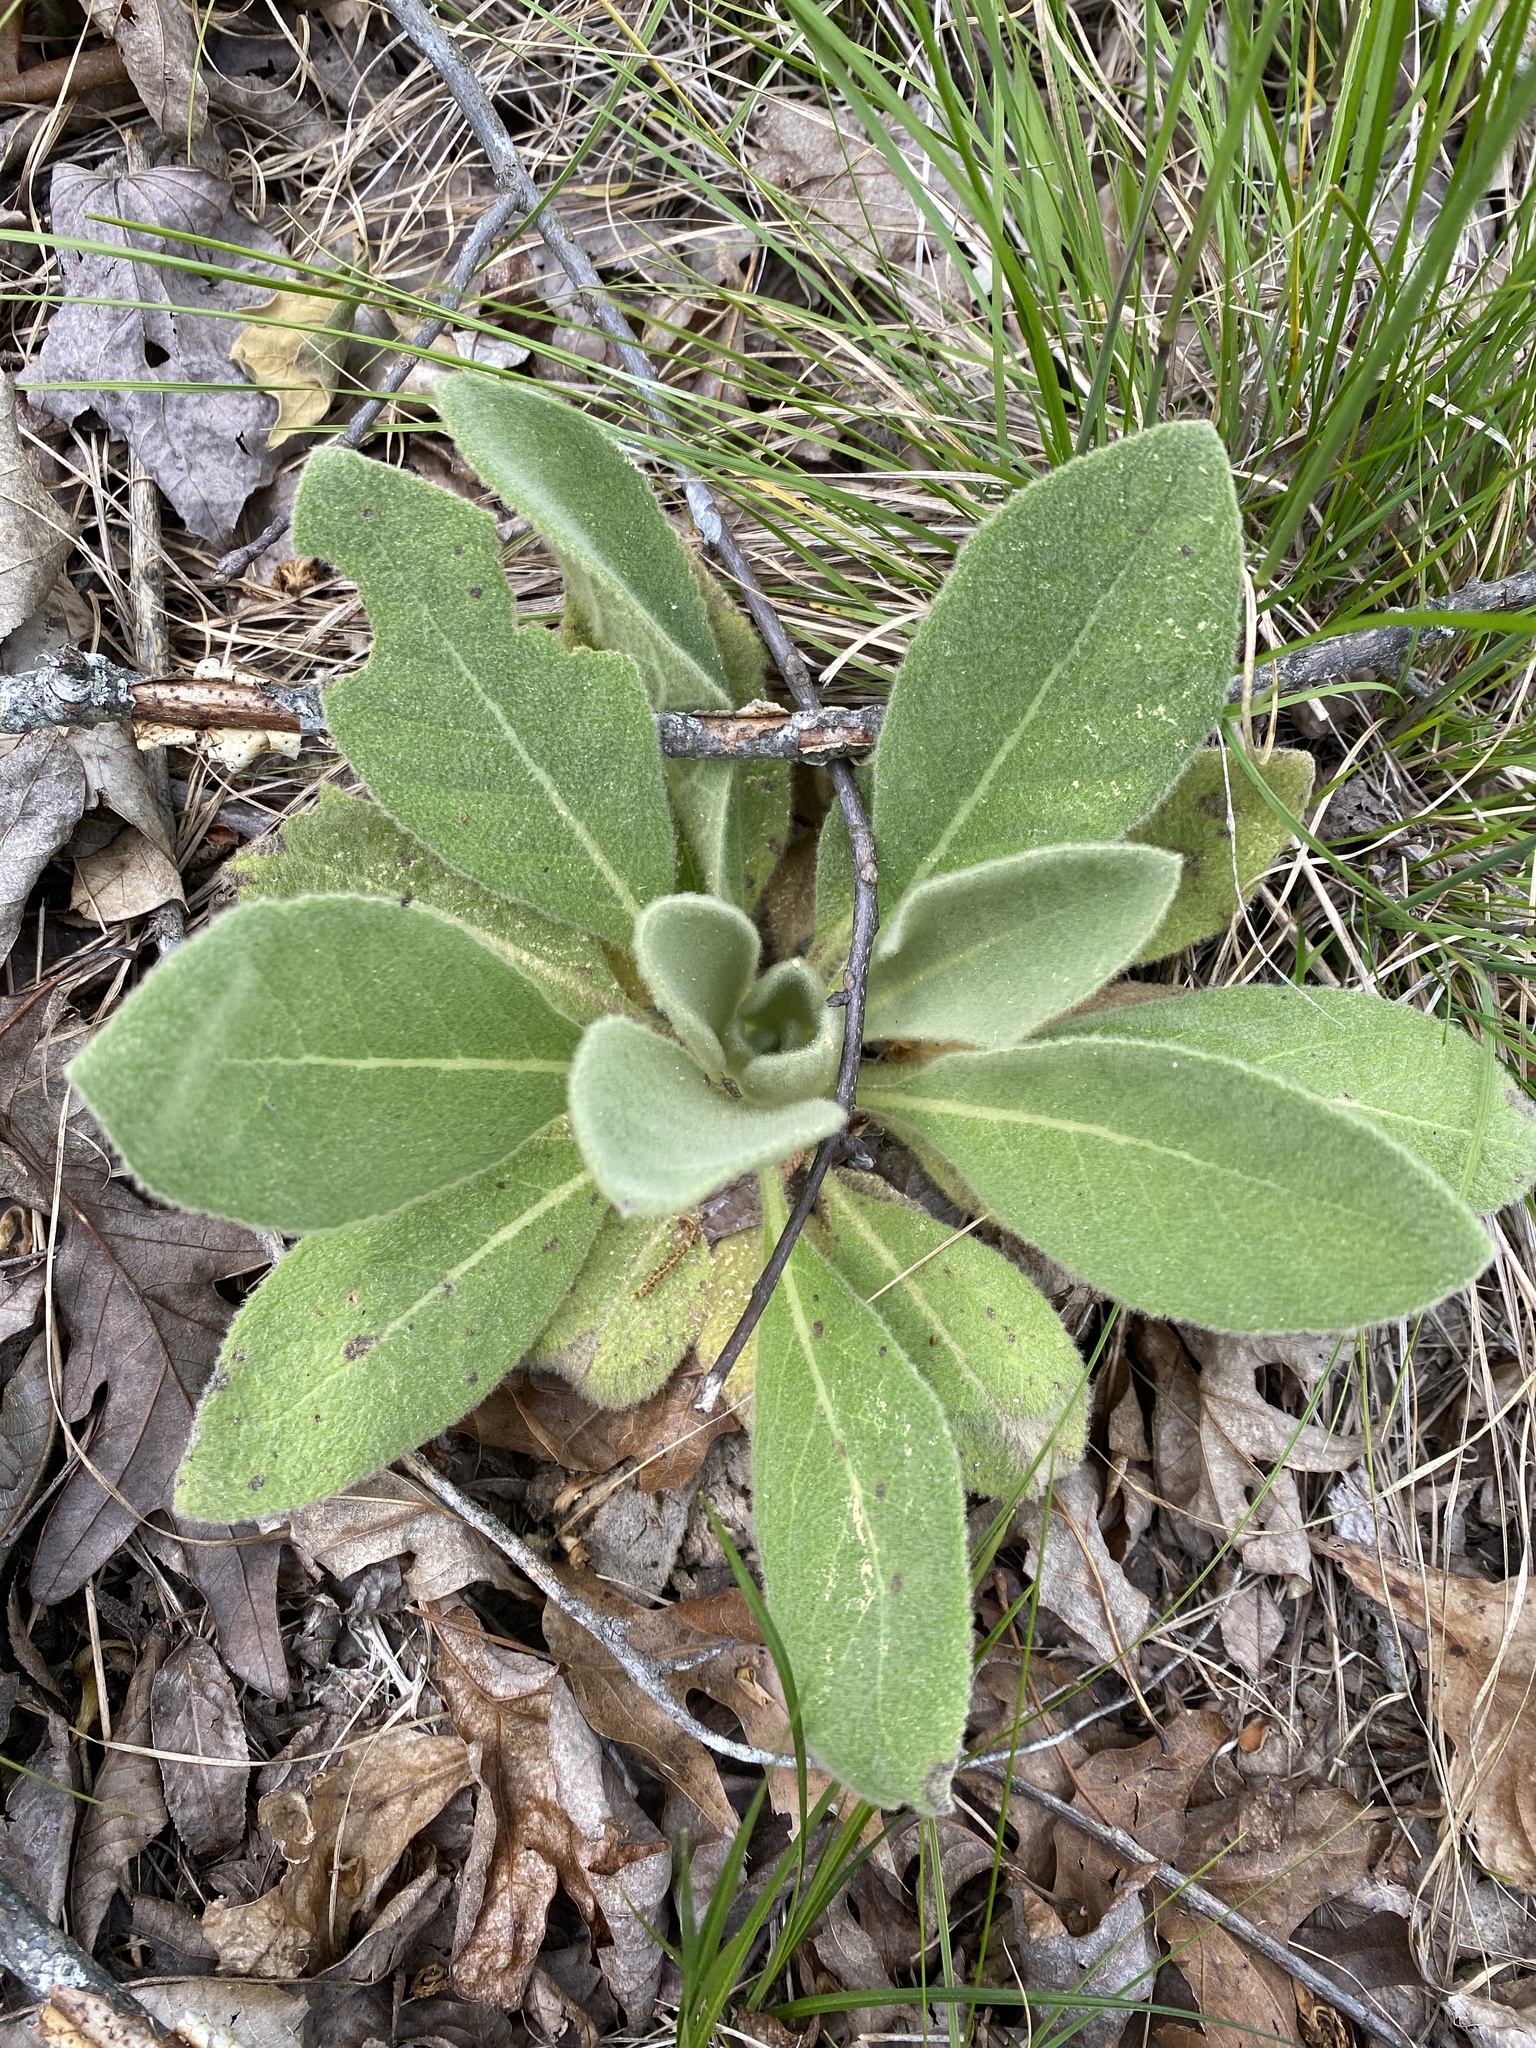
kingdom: Plantae
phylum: Tracheophyta
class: Magnoliopsida
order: Lamiales
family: Scrophulariaceae
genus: Verbascum
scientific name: Verbascum thapsus
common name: Common mullein
